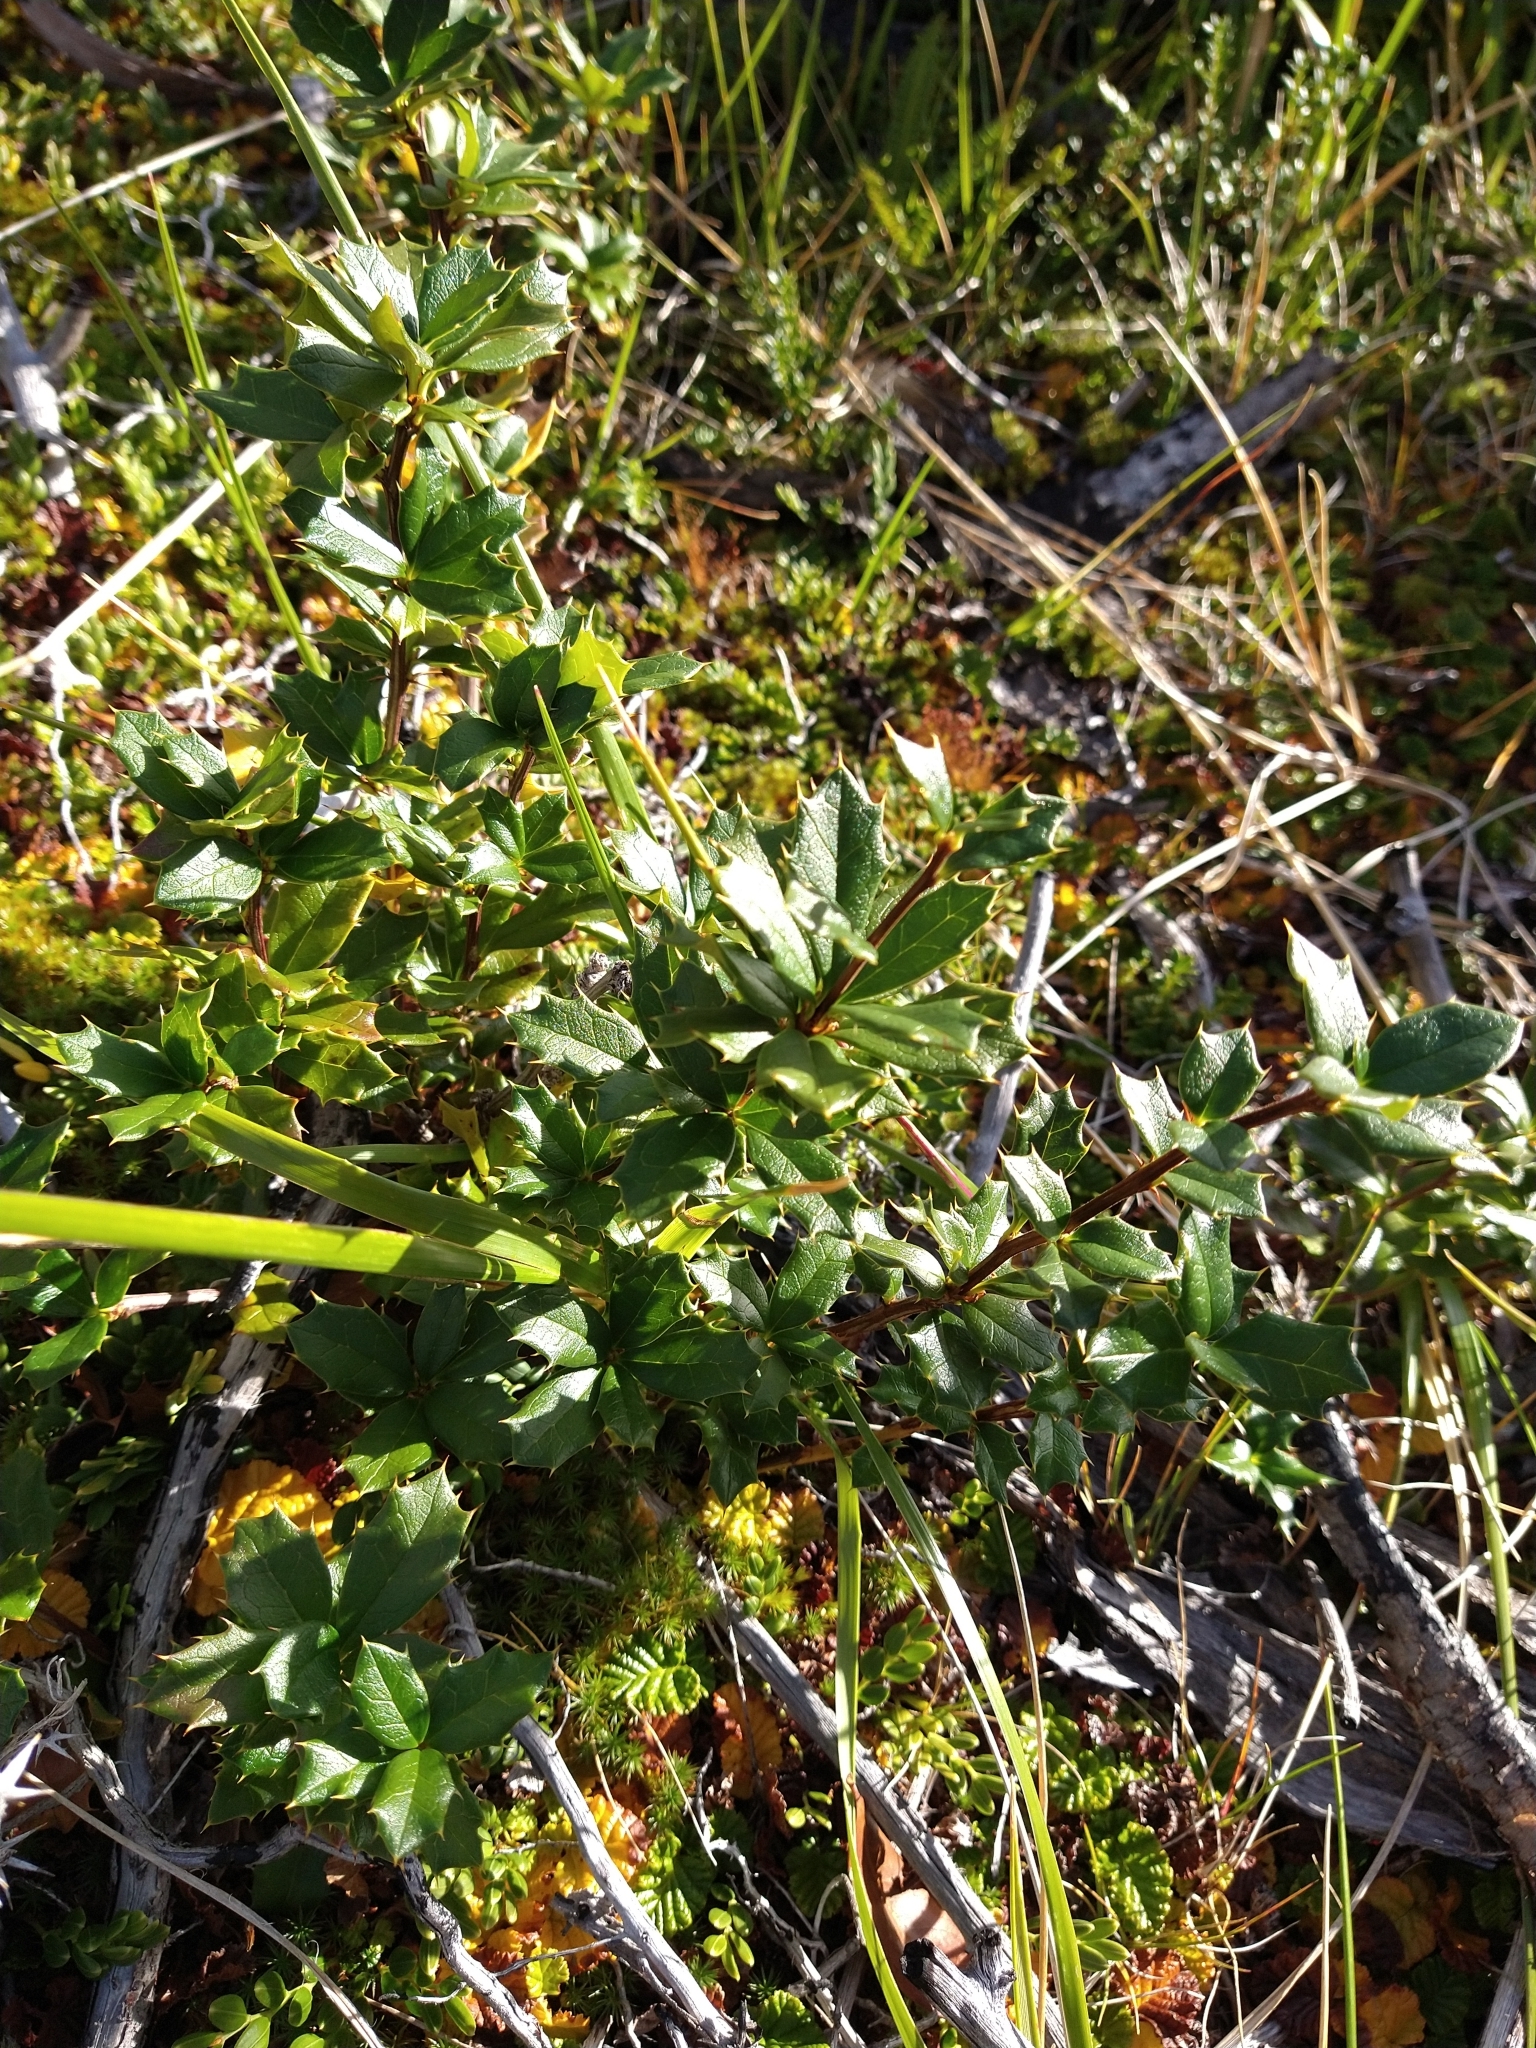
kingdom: Plantae
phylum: Tracheophyta
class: Magnoliopsida
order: Ranunculales
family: Berberidaceae
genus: Berberis
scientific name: Berberis ilicifolia
